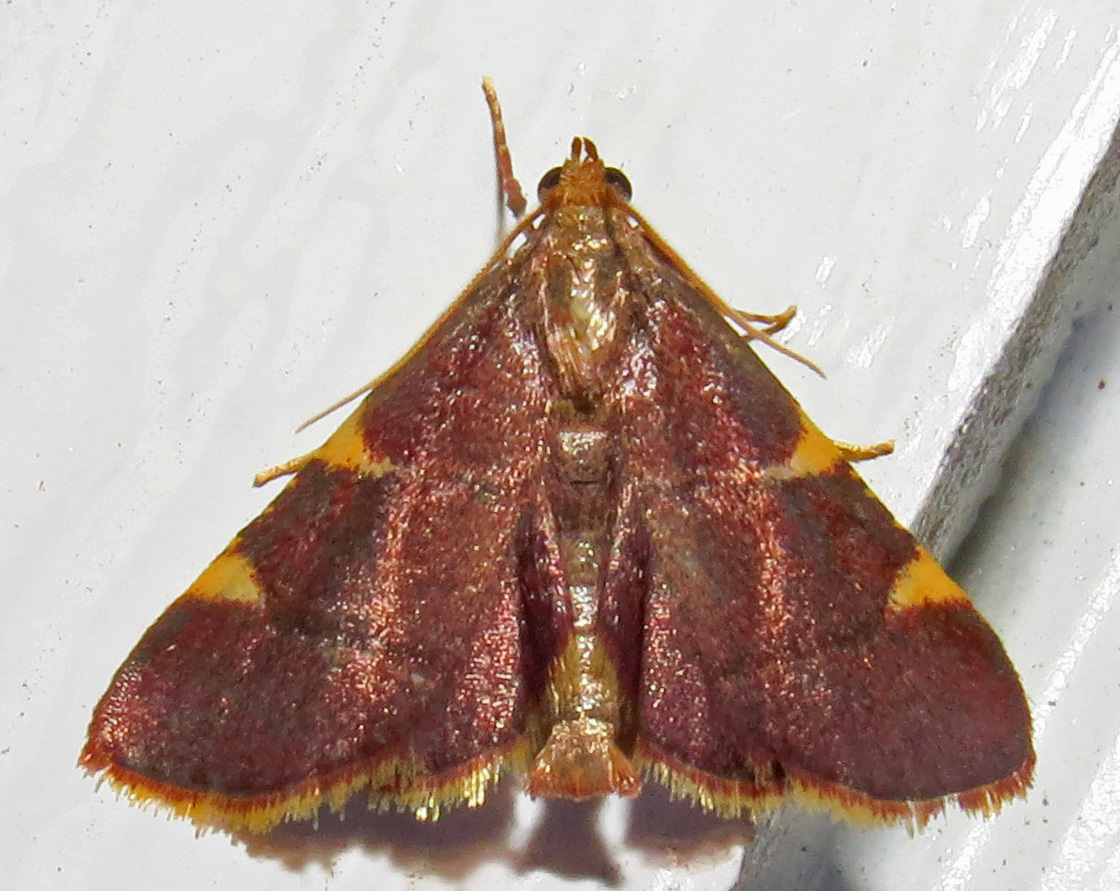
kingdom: Animalia
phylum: Arthropoda
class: Insecta
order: Lepidoptera
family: Pyralidae
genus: Hypsopygia
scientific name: Hypsopygia olinalis
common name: Yellow-fringed dolichomia moth
